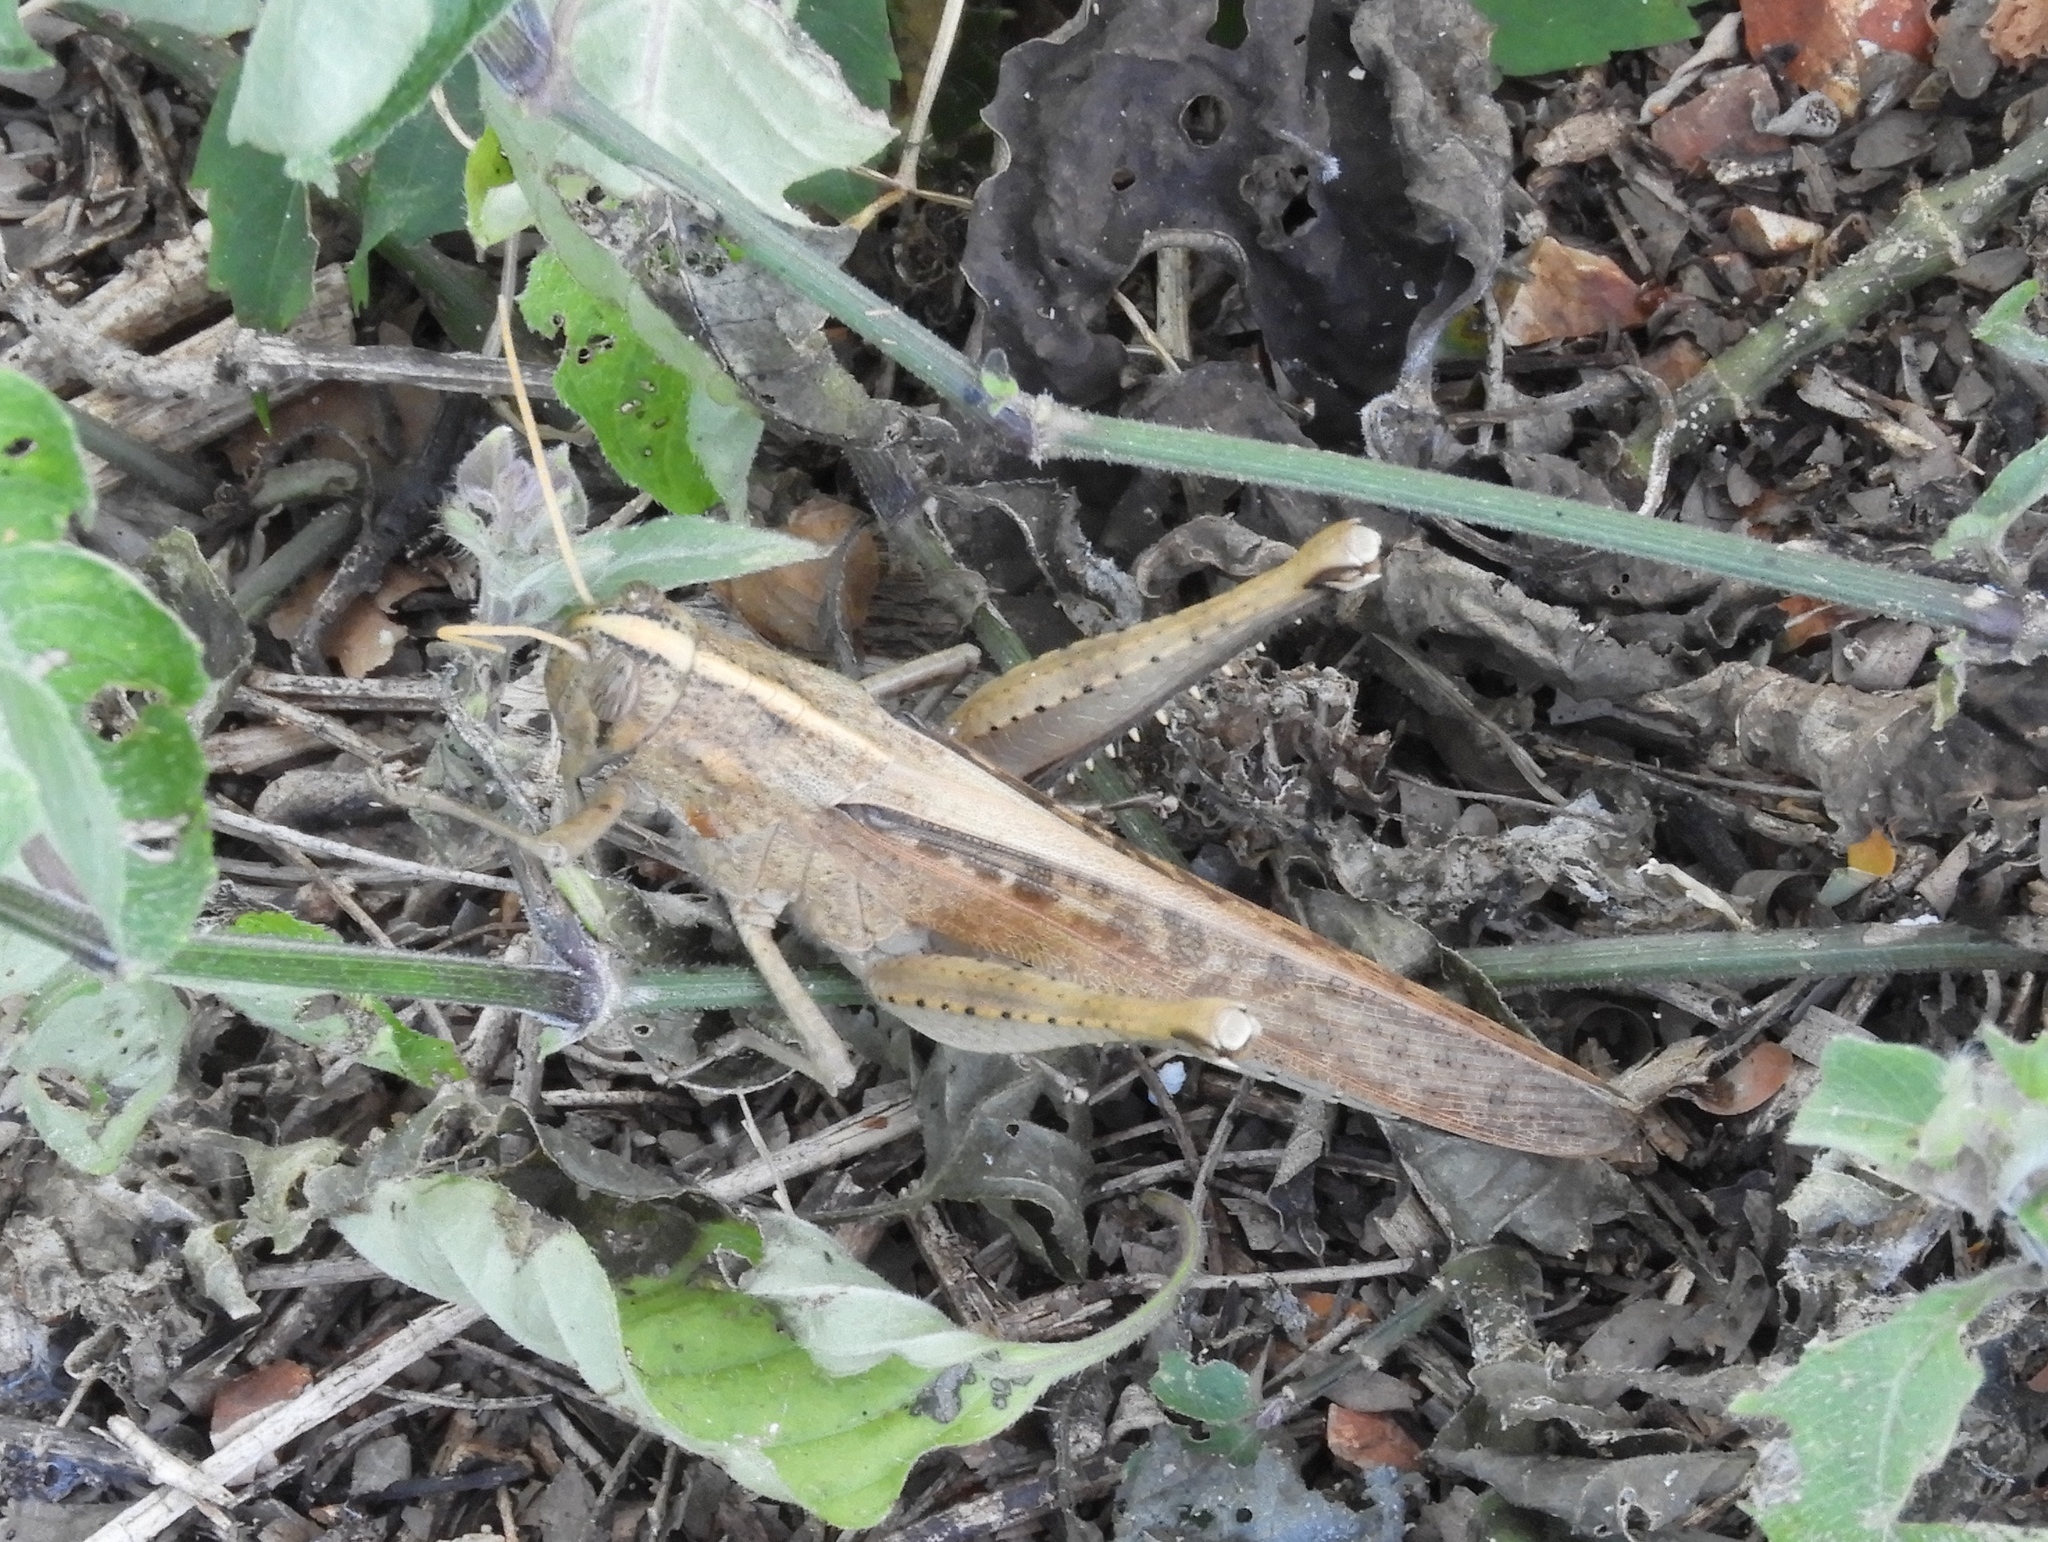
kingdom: Animalia
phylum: Arthropoda
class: Insecta
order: Orthoptera
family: Acrididae
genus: Schistocerca
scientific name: Schistocerca
